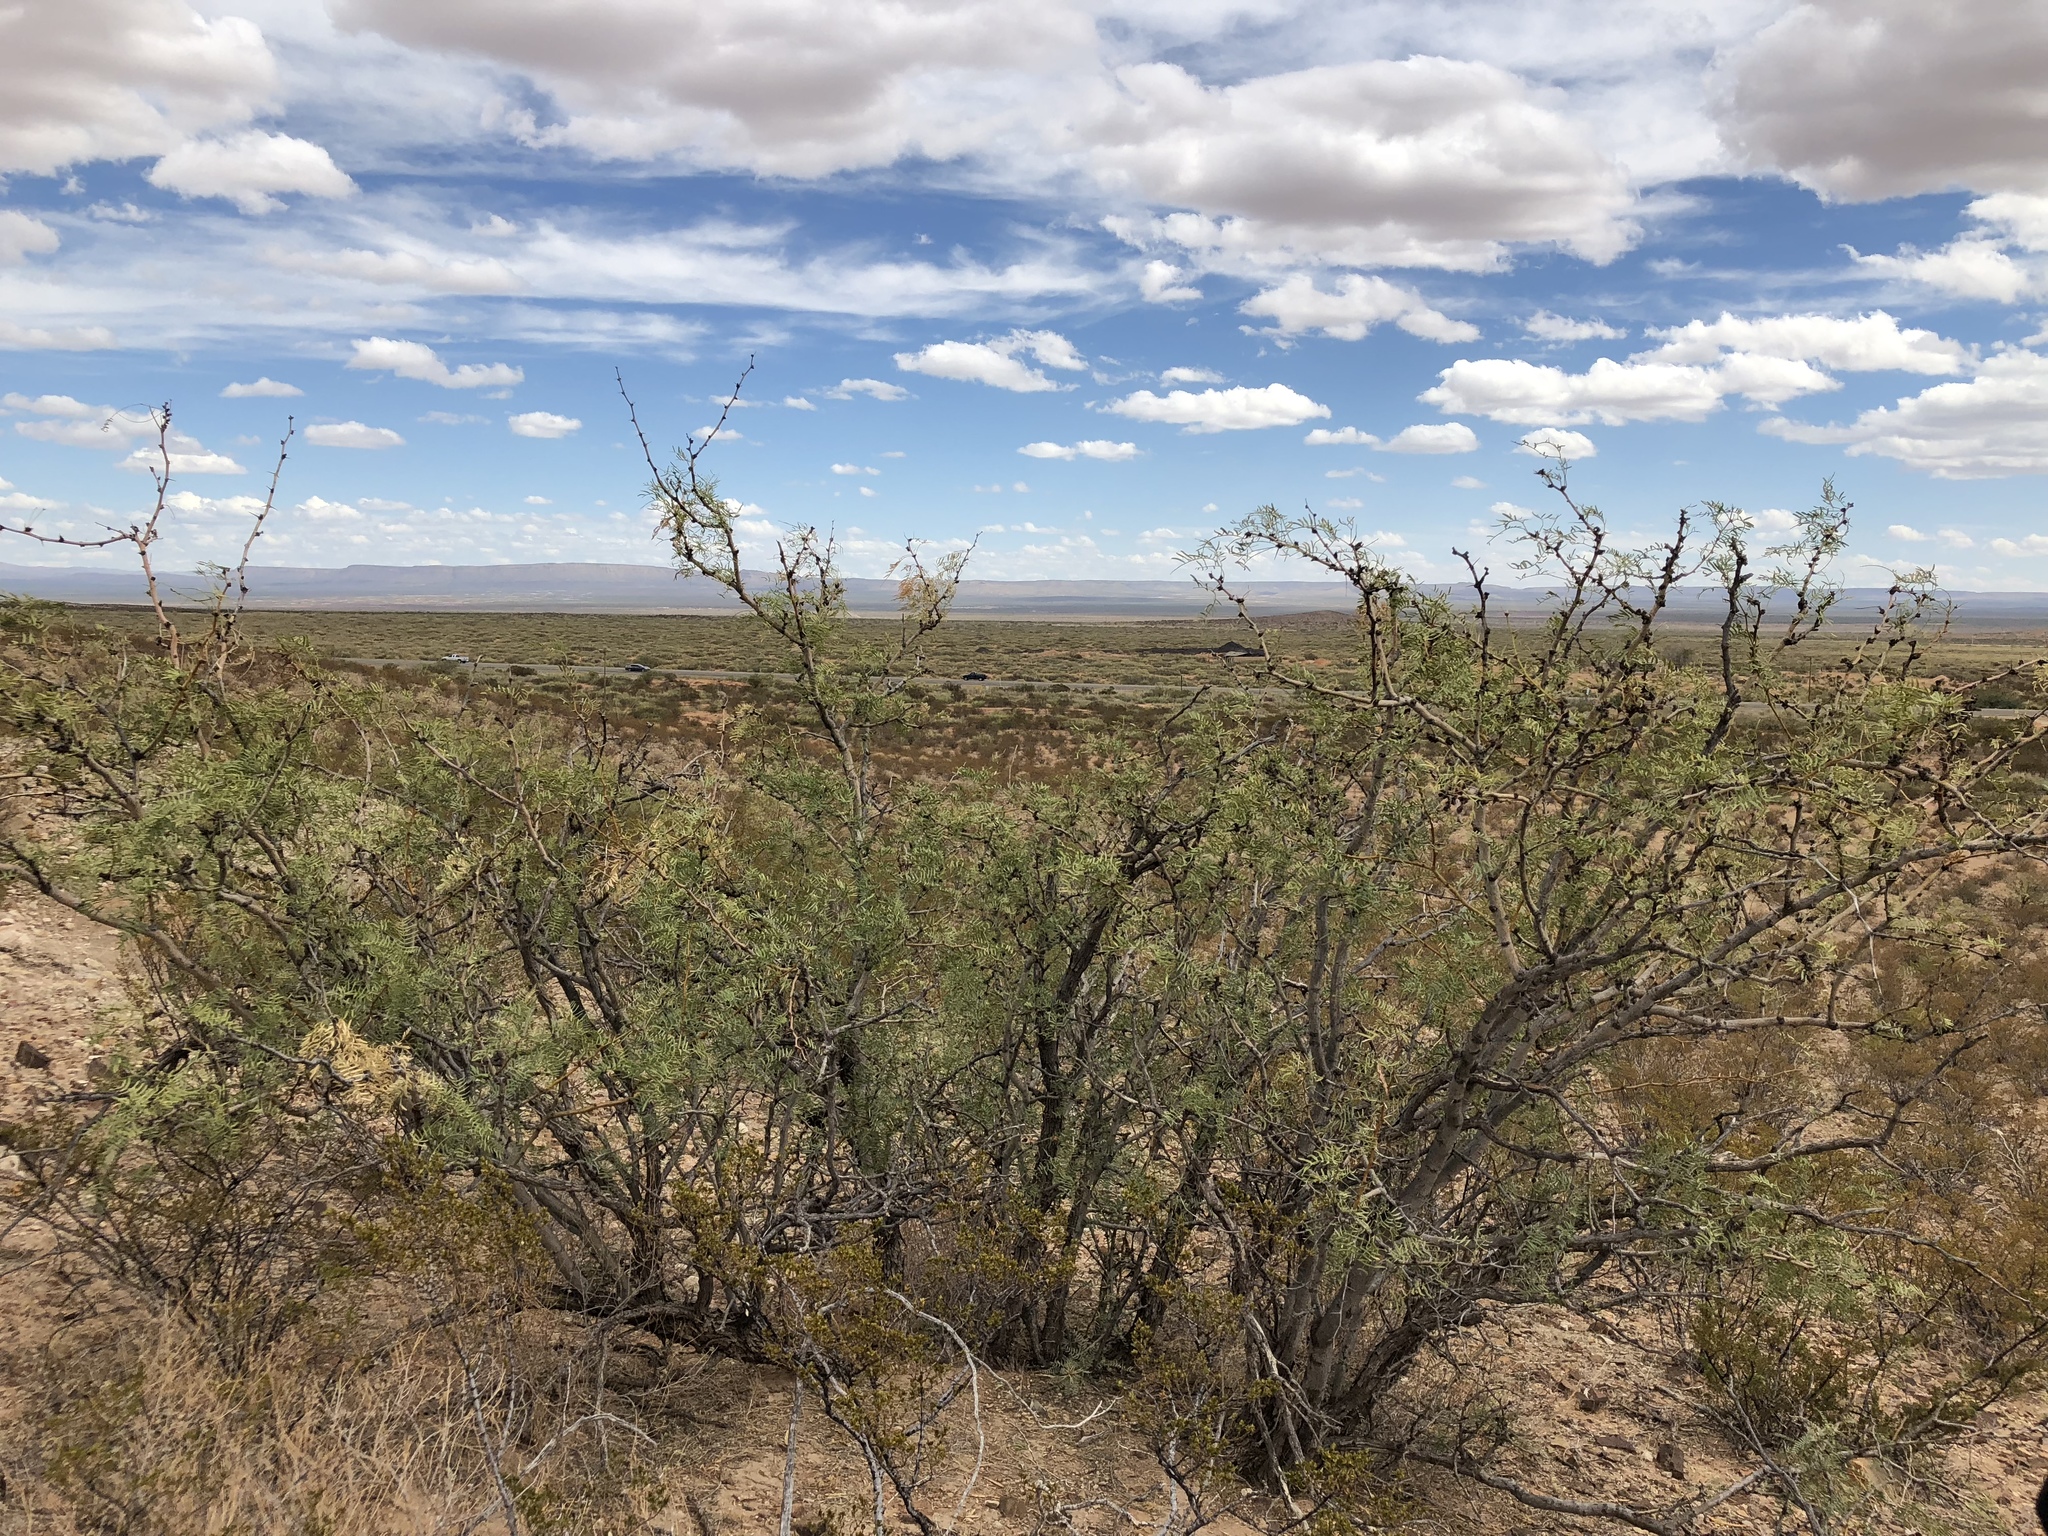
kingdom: Plantae
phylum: Tracheophyta
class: Magnoliopsida
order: Zygophyllales
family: Zygophyllaceae
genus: Larrea
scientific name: Larrea tridentata
